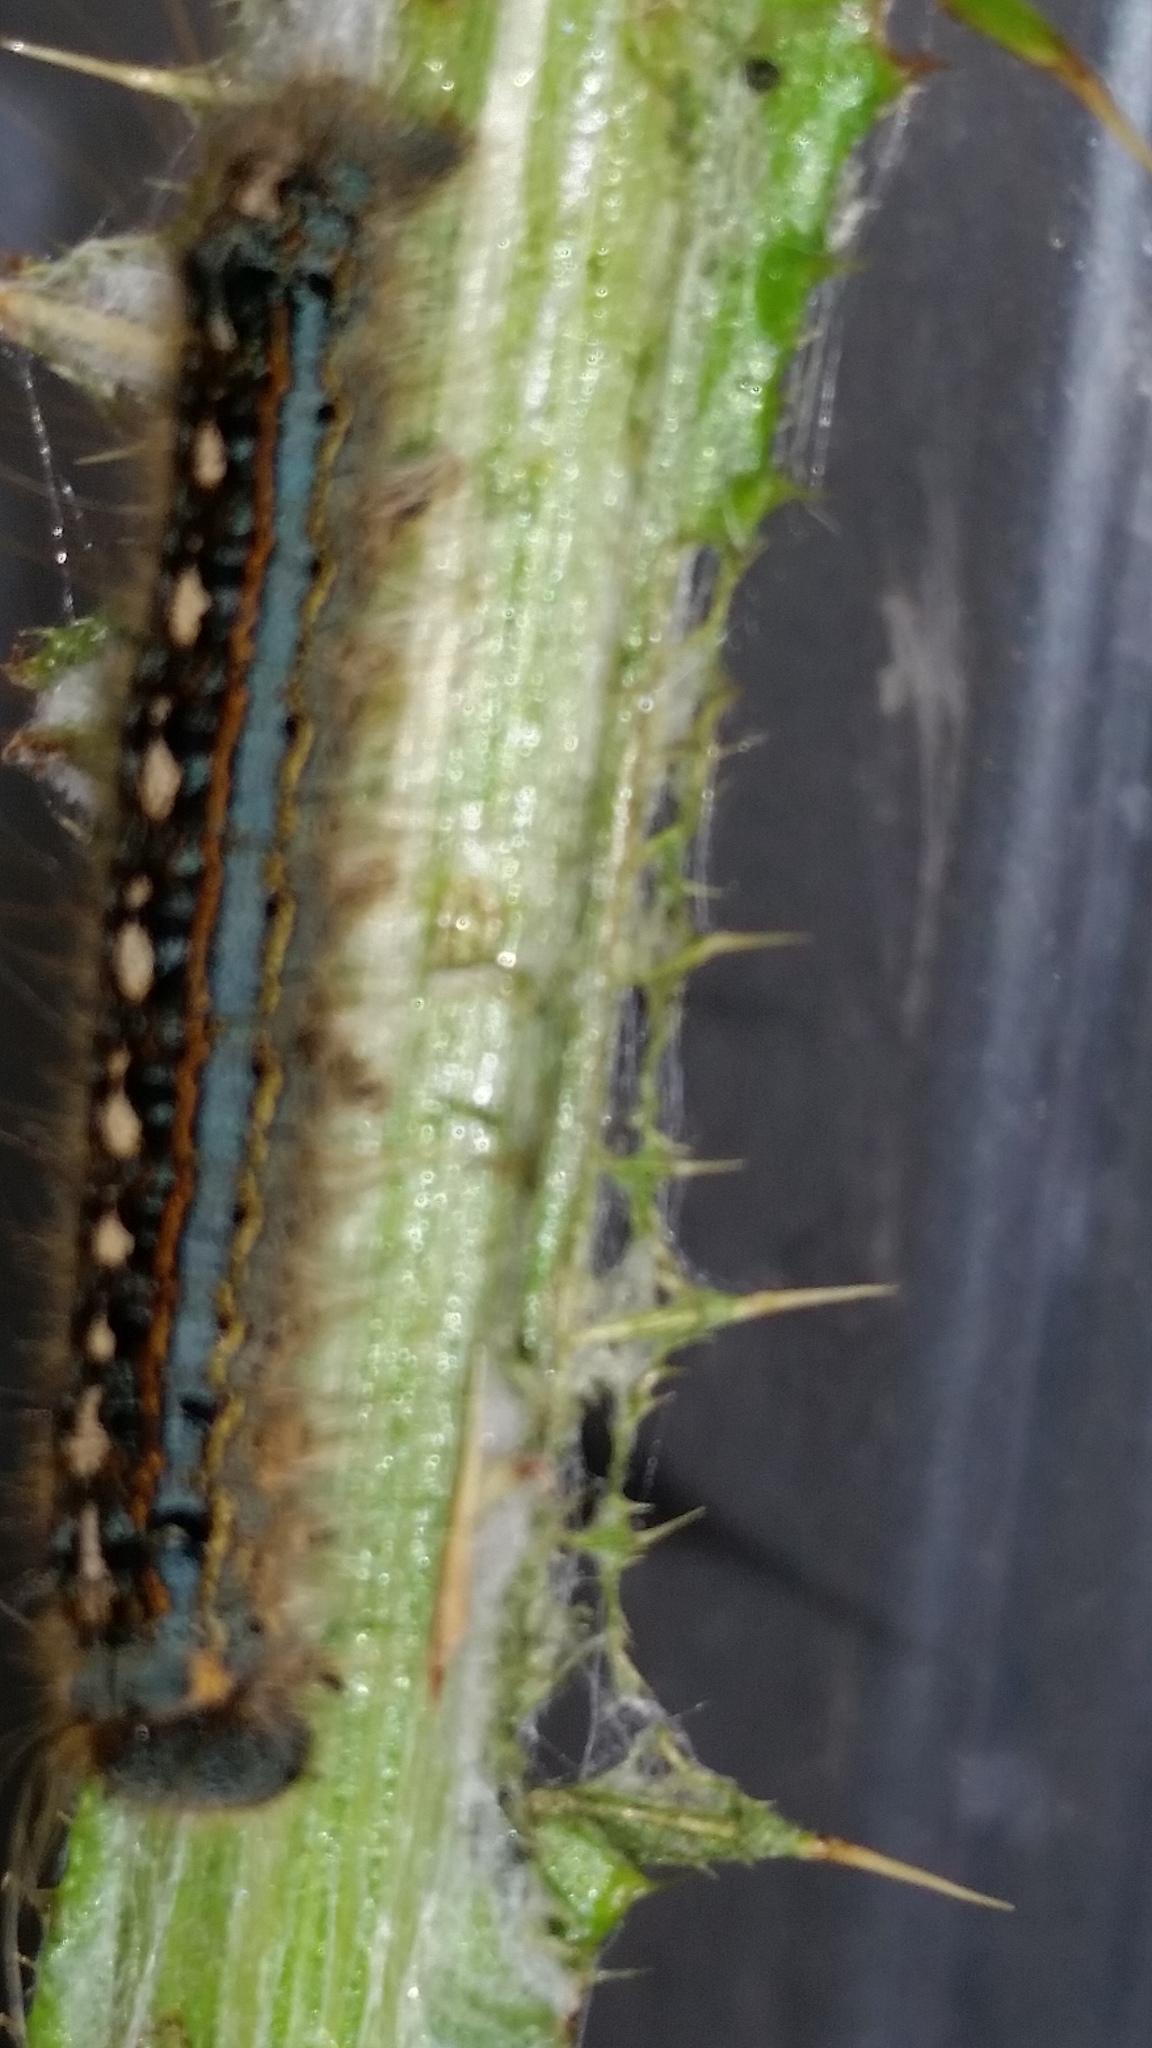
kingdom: Animalia
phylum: Arthropoda
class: Insecta
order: Lepidoptera
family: Lasiocampidae
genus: Malacosoma
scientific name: Malacosoma disstria
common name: Forest tent caterpillar
